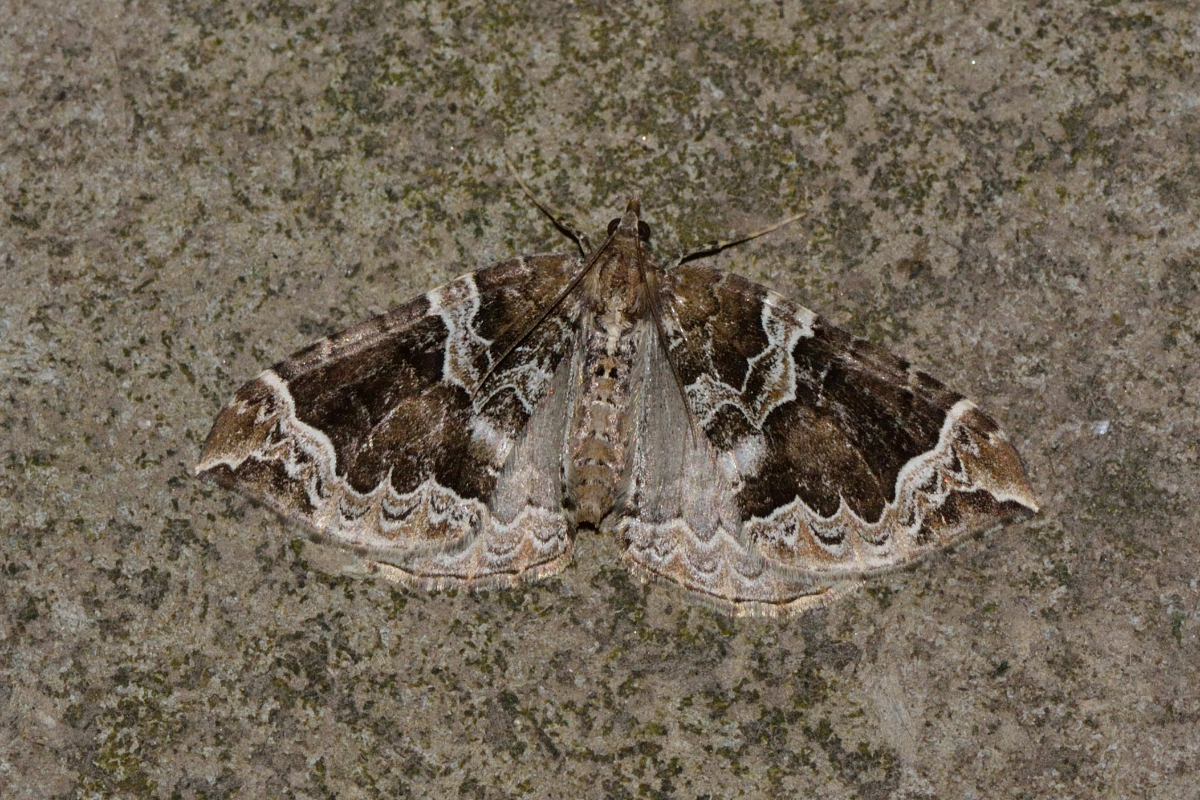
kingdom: Animalia
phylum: Arthropoda
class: Insecta
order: Lepidoptera
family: Geometridae
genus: Eulithis
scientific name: Eulithis prunata
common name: Phoenix
